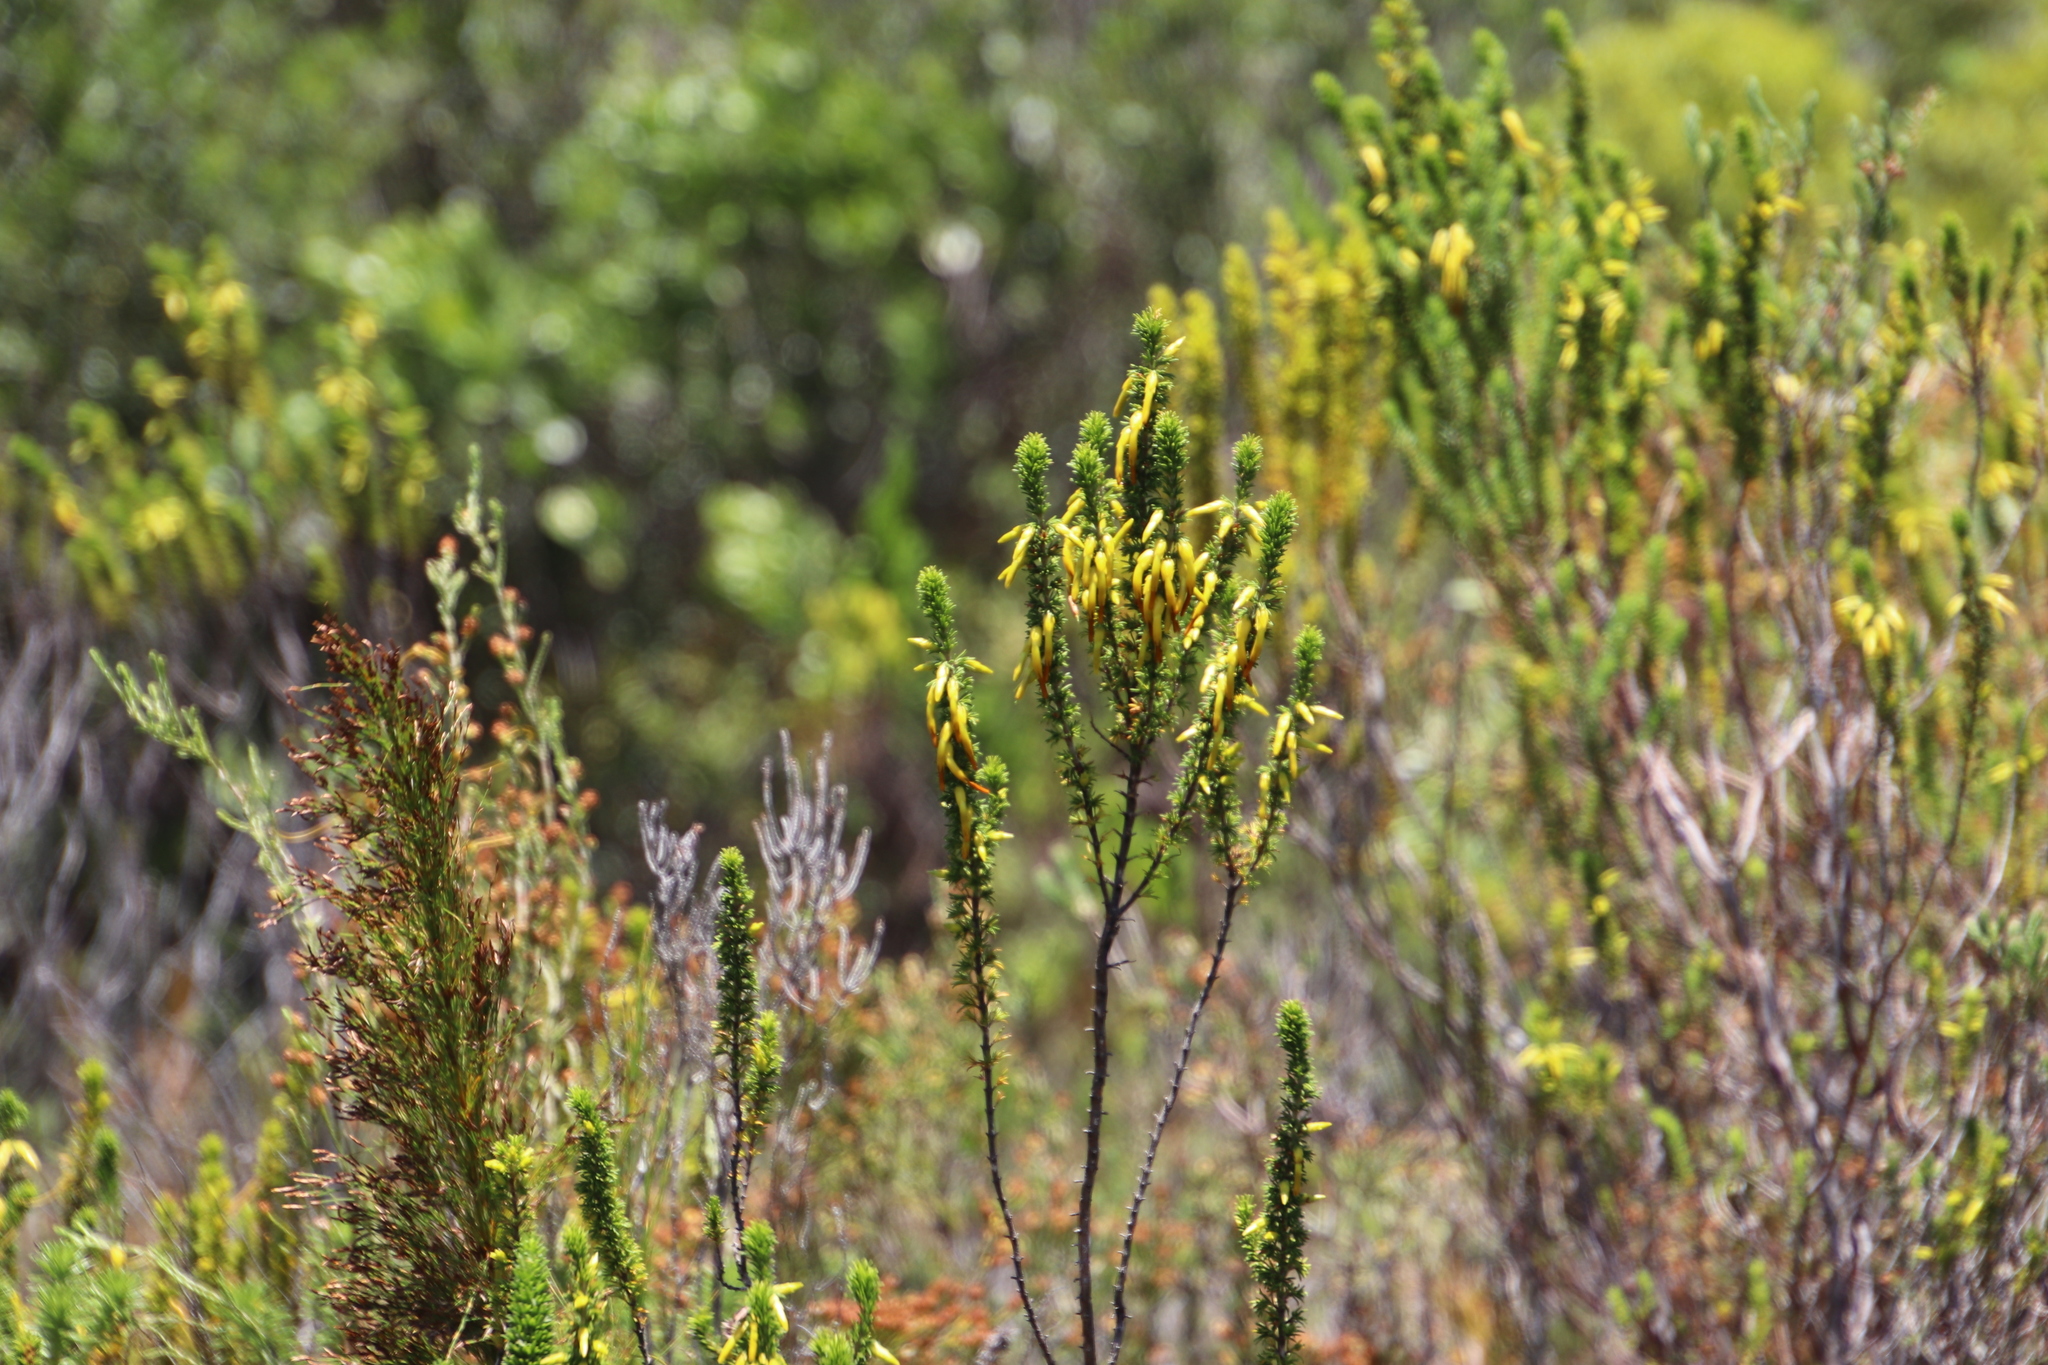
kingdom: Plantae
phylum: Tracheophyta
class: Magnoliopsida
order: Ericales
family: Ericaceae
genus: Erica
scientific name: Erica coccinea
